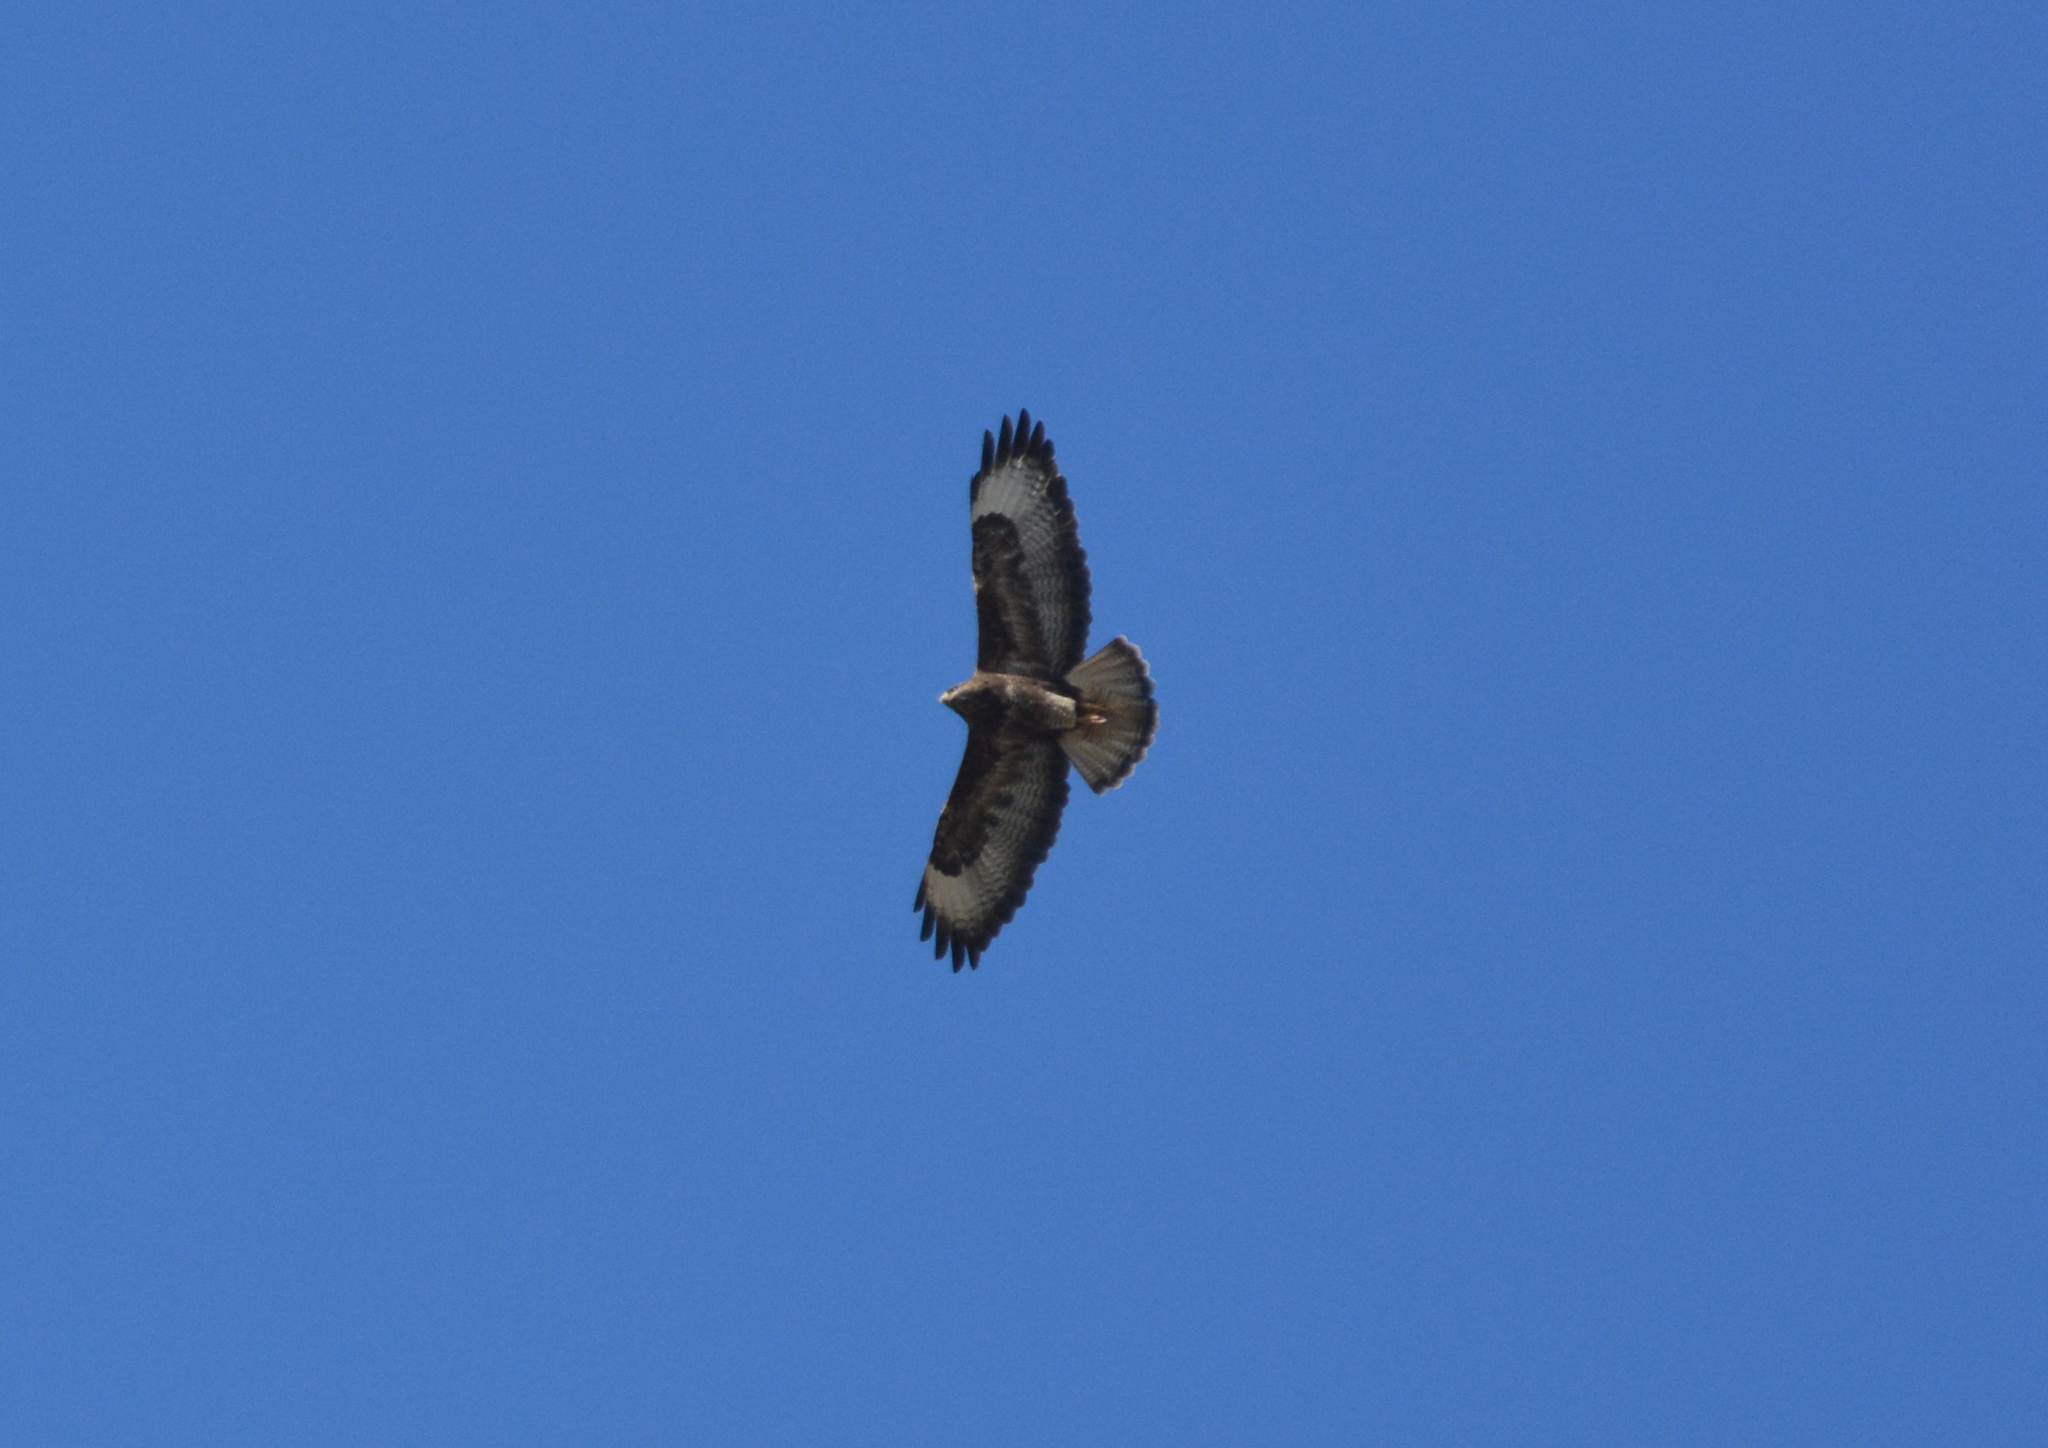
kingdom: Animalia
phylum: Chordata
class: Aves
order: Accipitriformes
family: Accipitridae
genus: Buteo
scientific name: Buteo buteo
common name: Common buzzard
